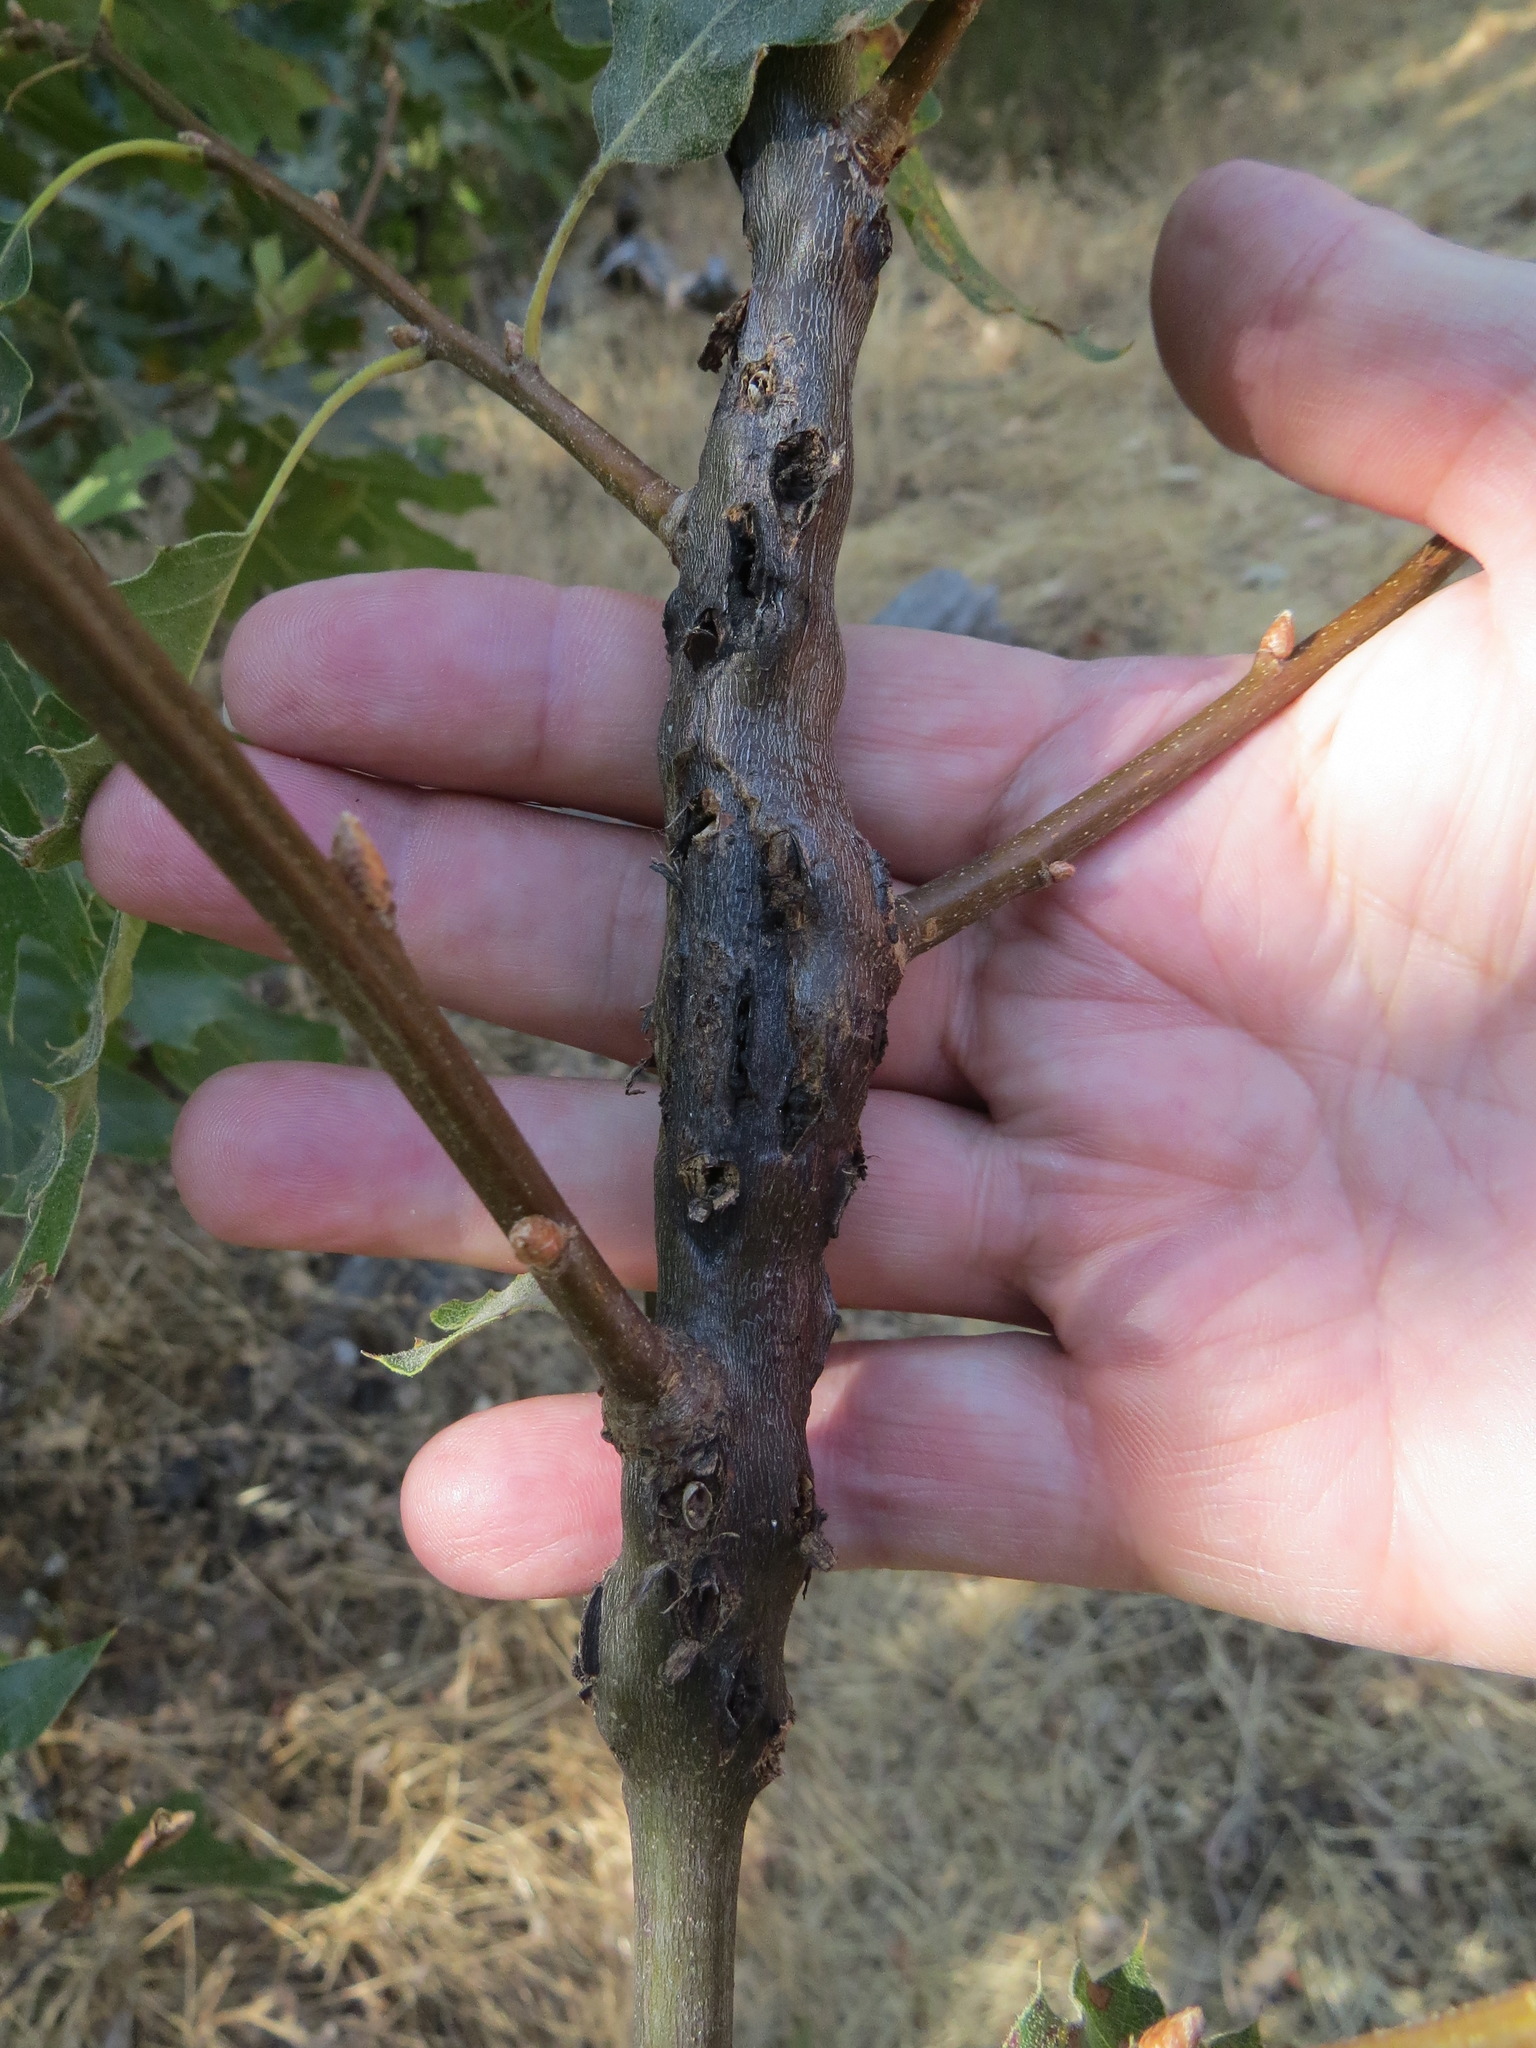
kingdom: Animalia
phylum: Arthropoda
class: Insecta
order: Hymenoptera
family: Cynipidae
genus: Callirhytis
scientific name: Callirhytis
